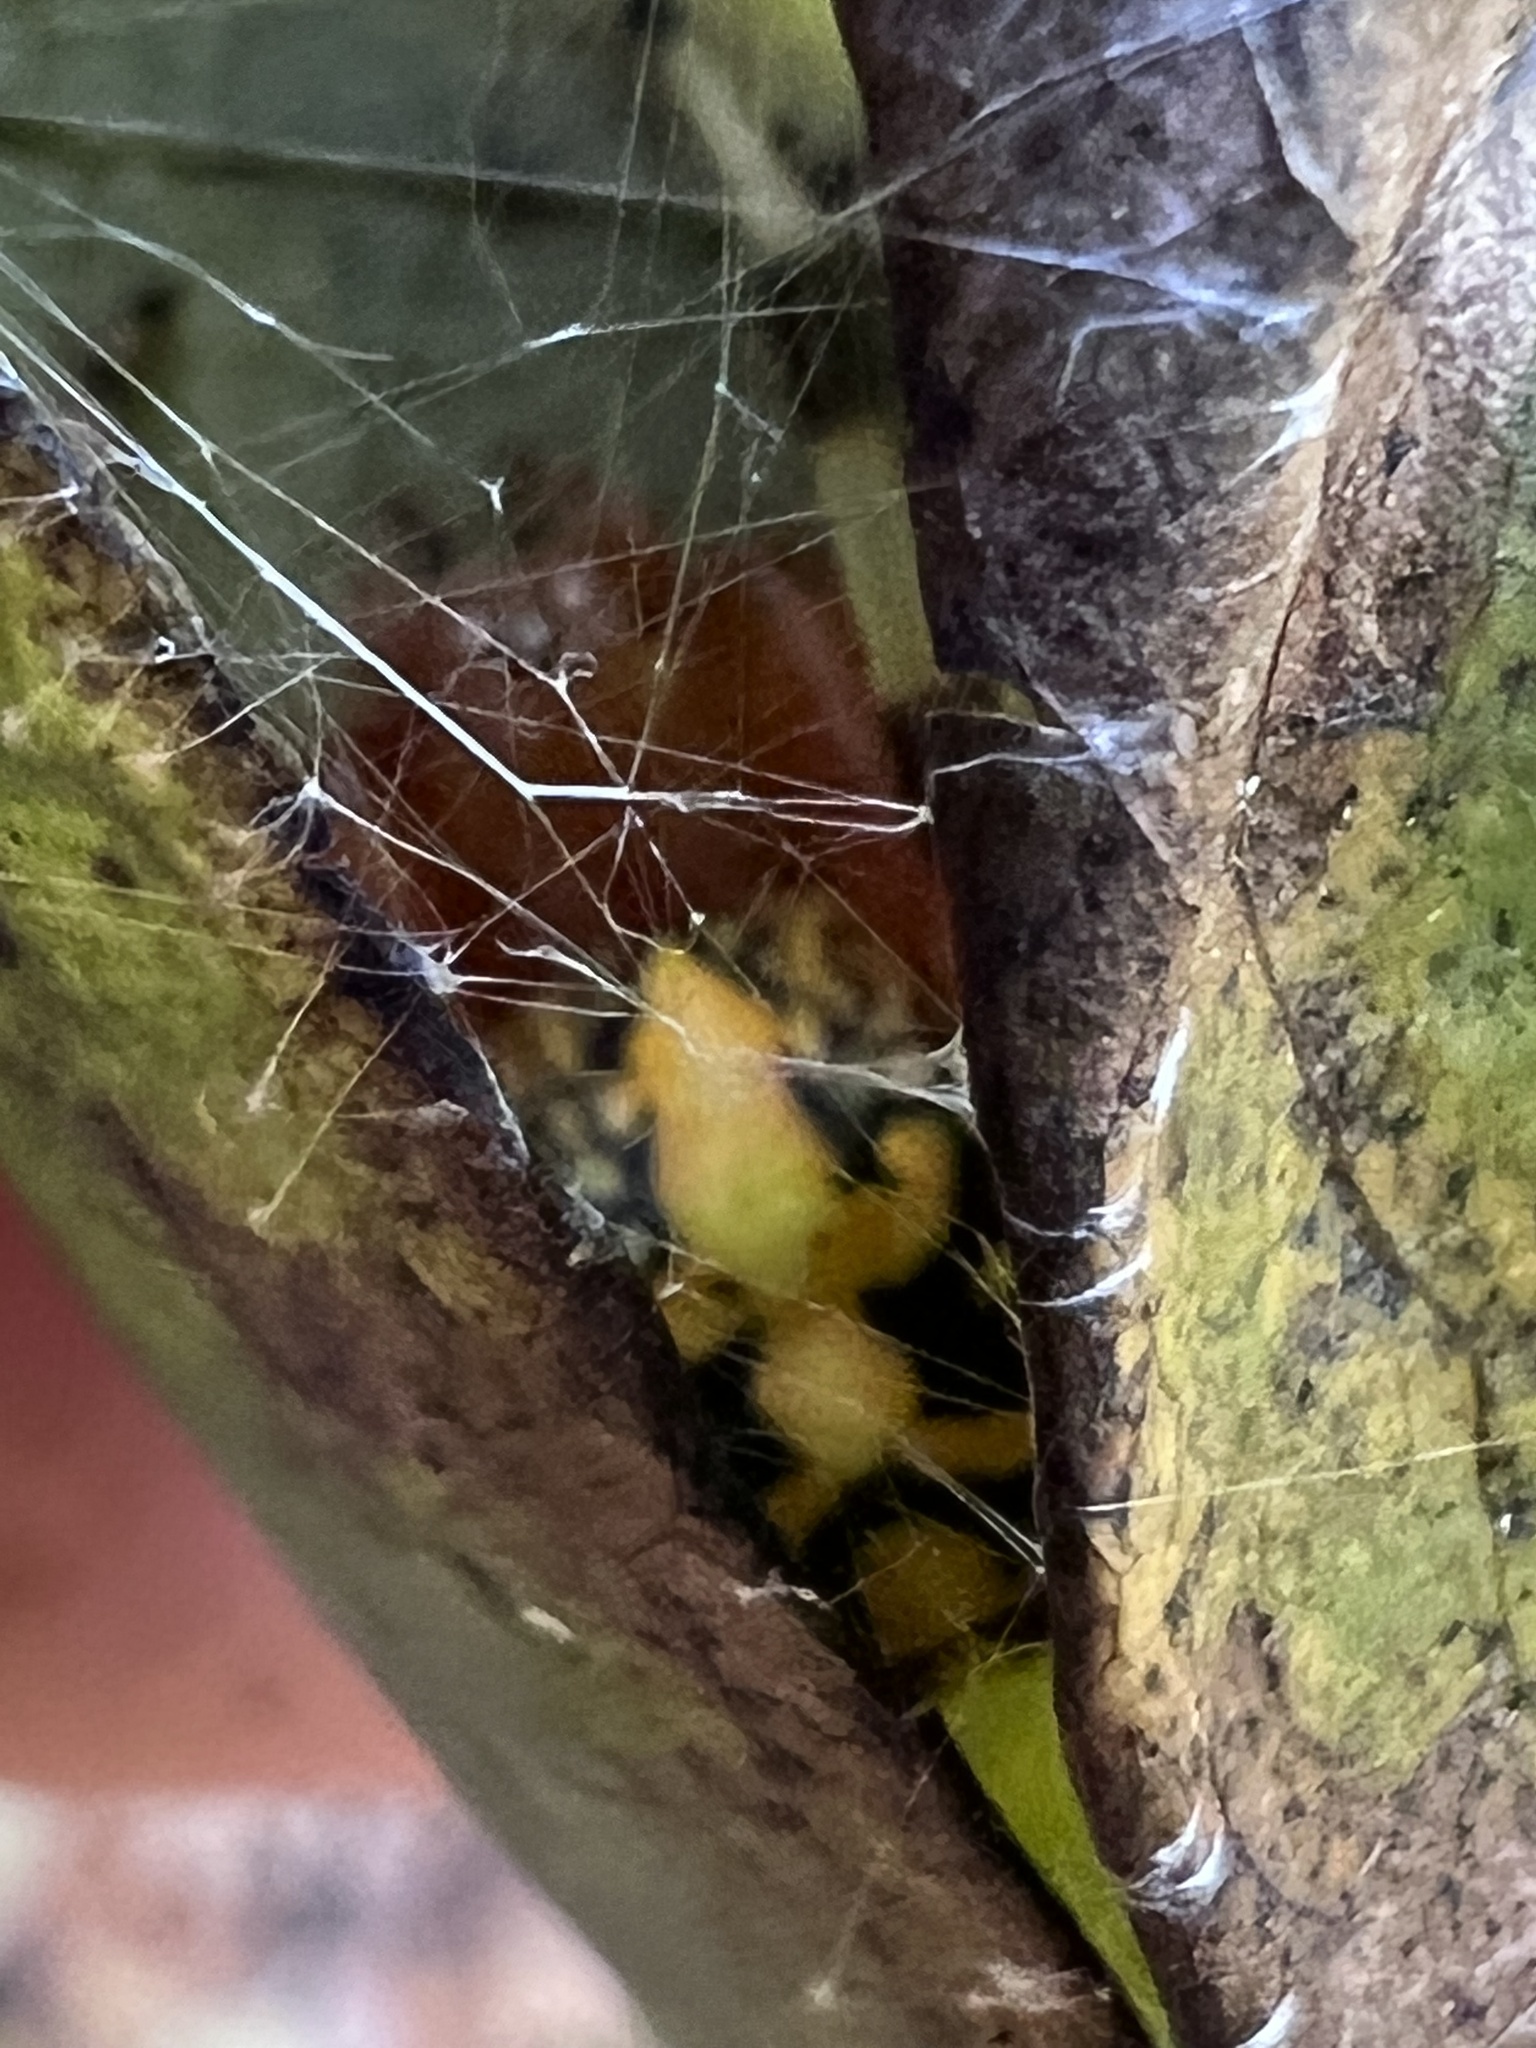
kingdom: Animalia
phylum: Arthropoda
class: Arachnida
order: Araneae
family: Araneidae
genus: Araneus
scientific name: Araneus marmoreus
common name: Marbled orbweaver
